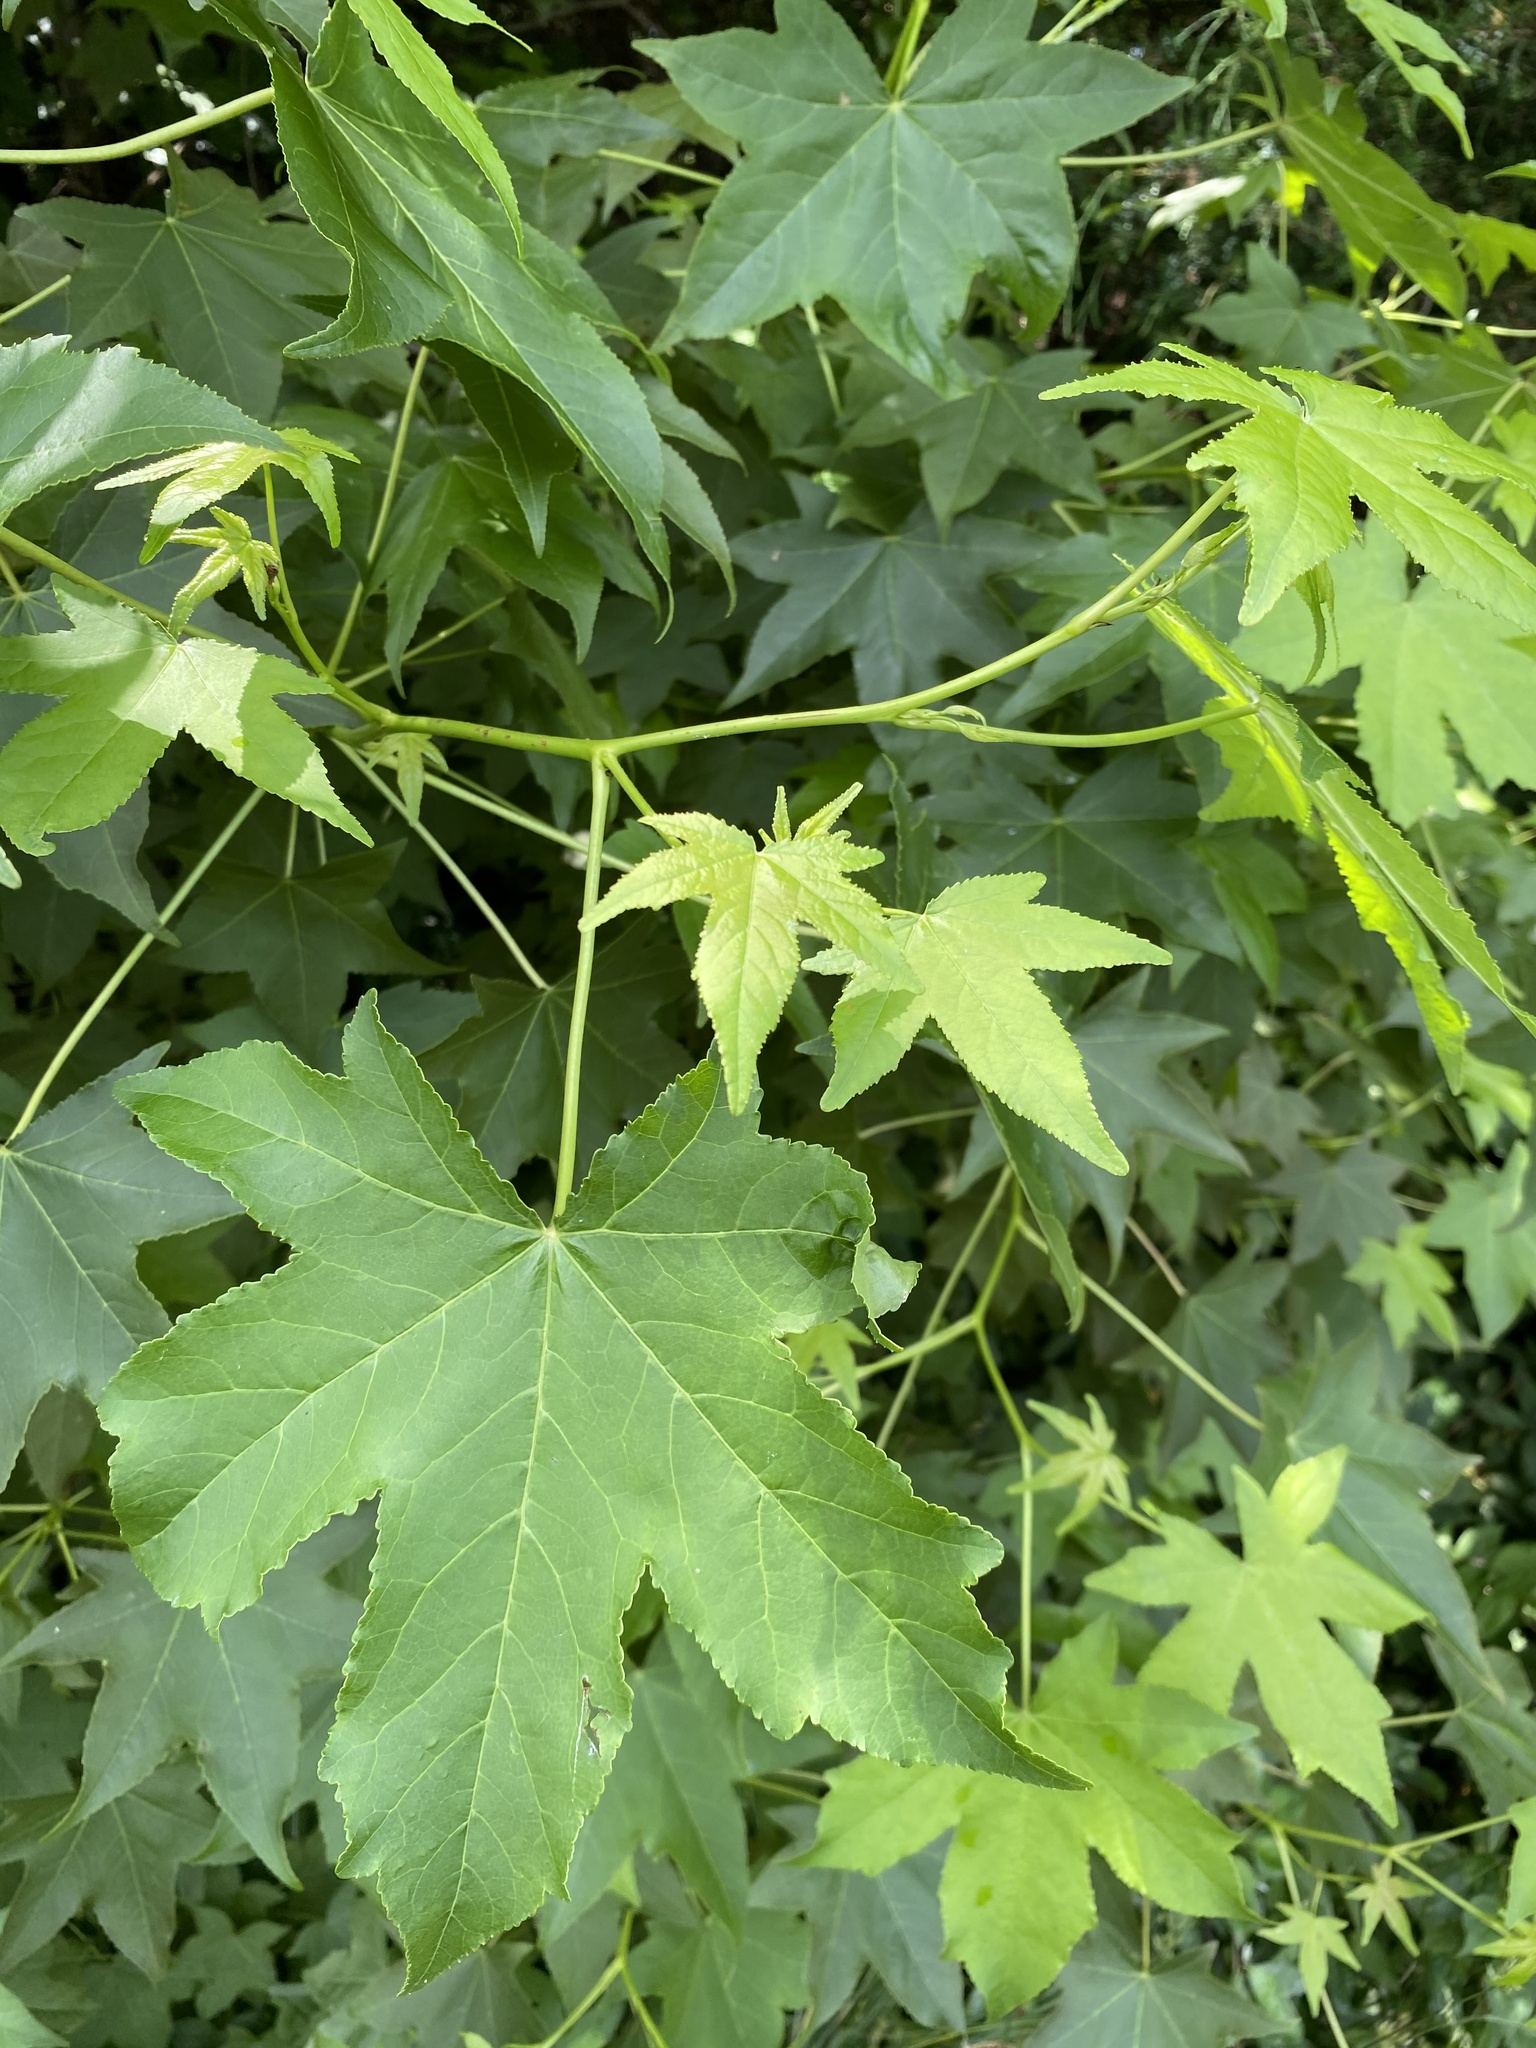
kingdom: Plantae
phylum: Tracheophyta
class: Magnoliopsida
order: Saxifragales
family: Altingiaceae
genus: Liquidambar
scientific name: Liquidambar styraciflua
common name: Sweet gum
